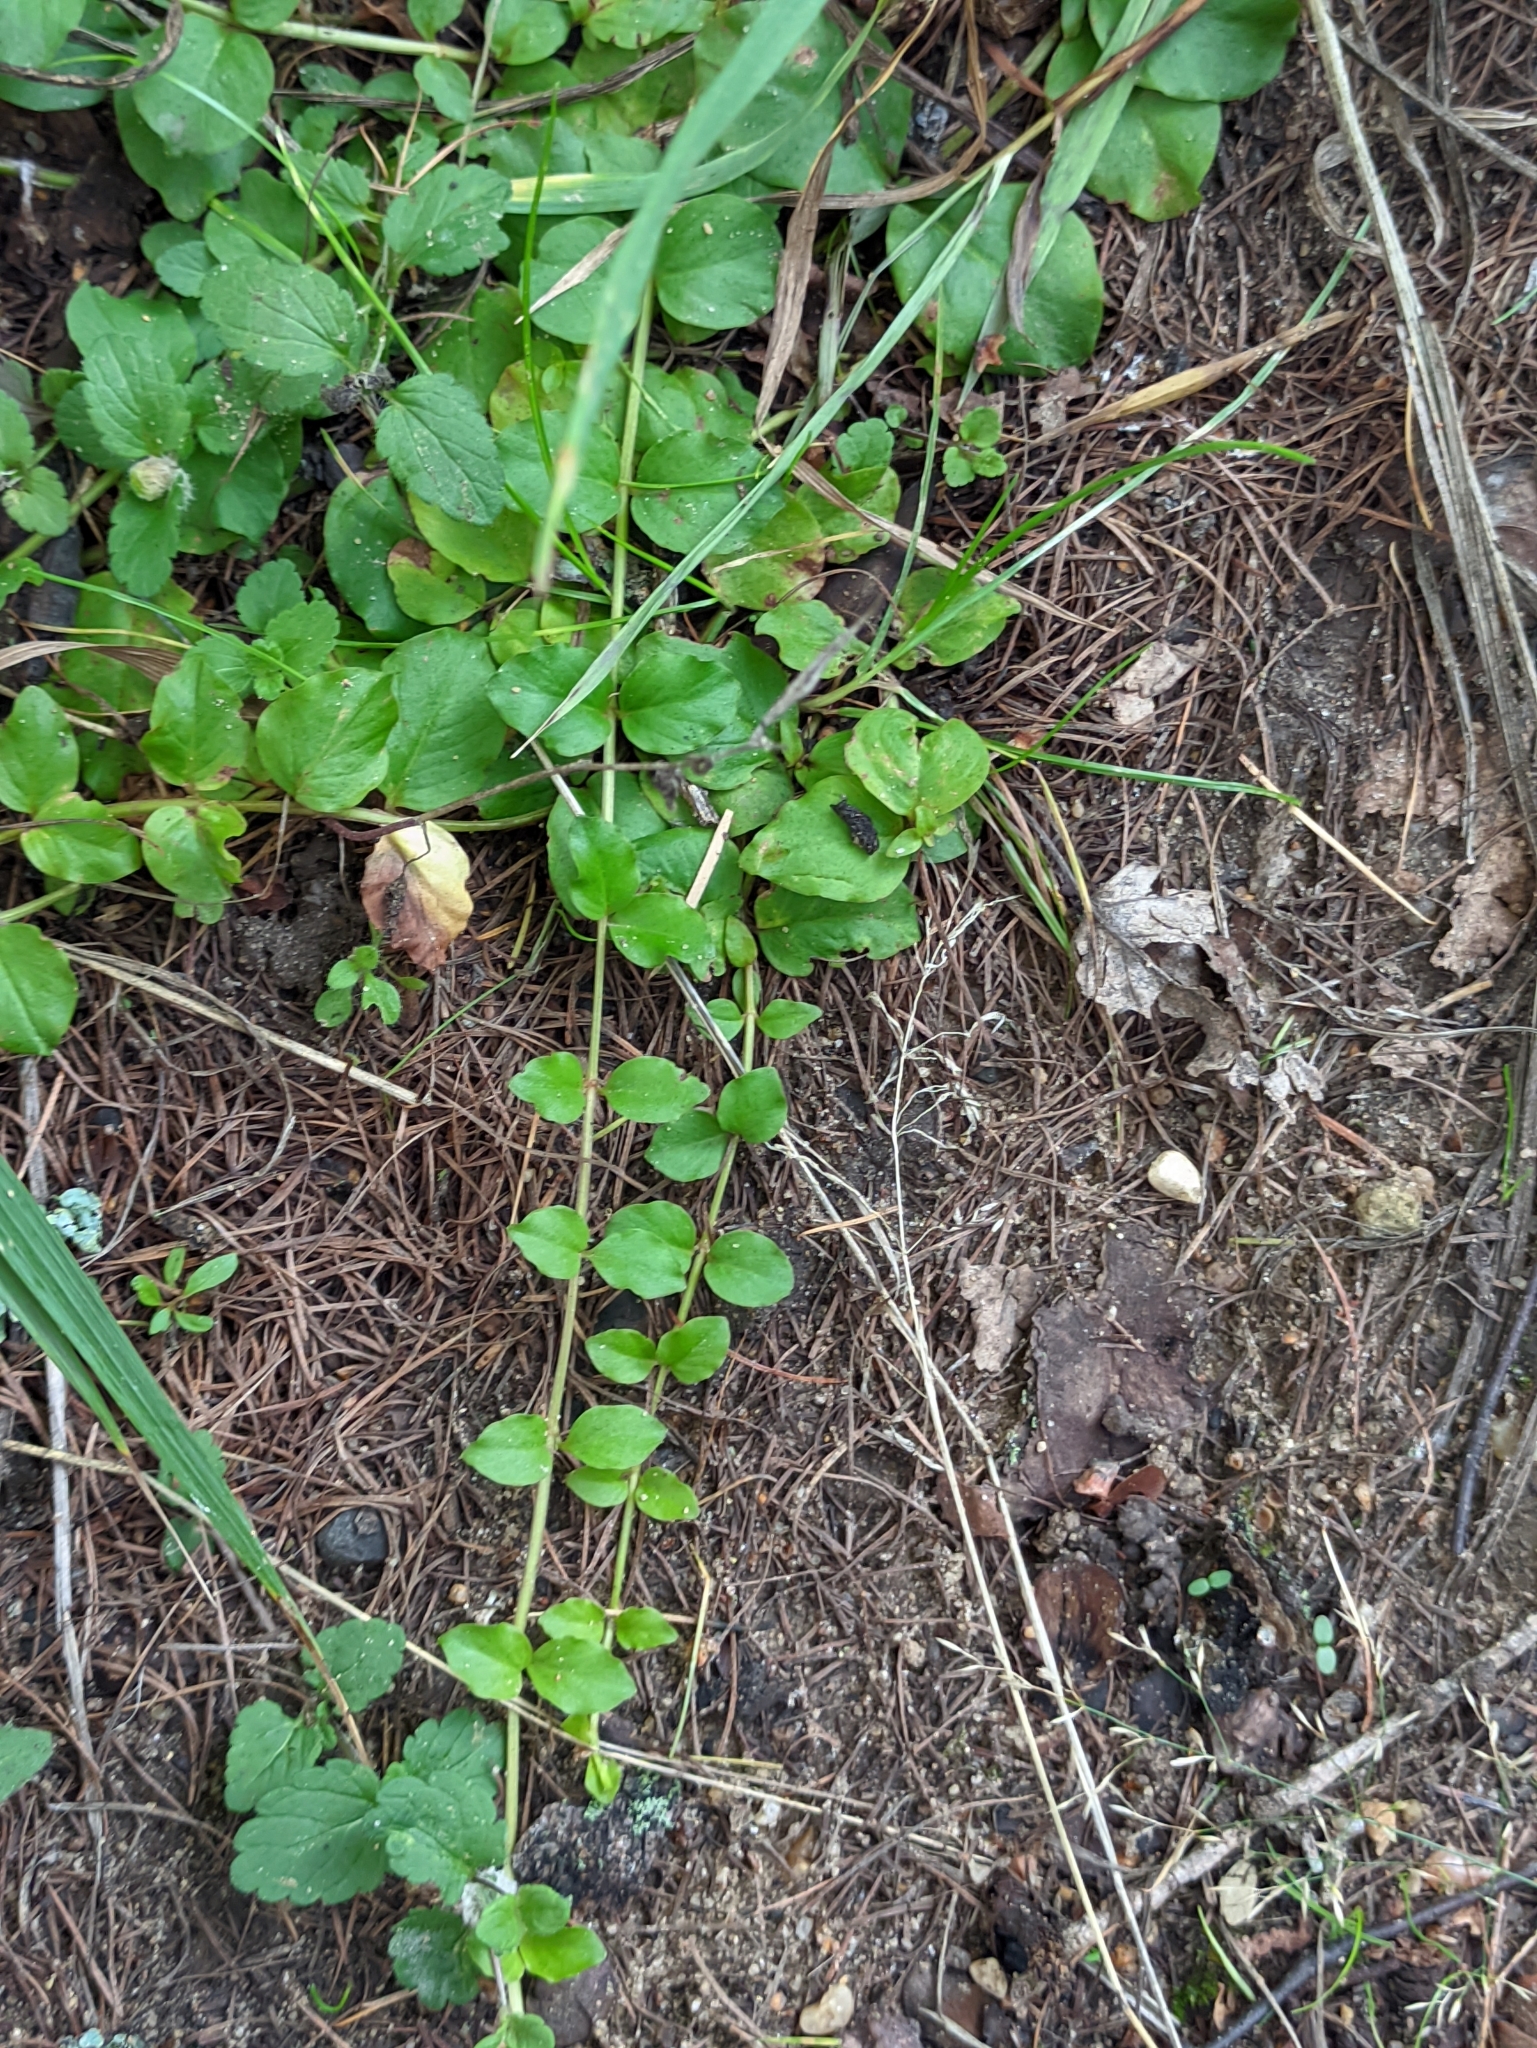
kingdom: Plantae
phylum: Tracheophyta
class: Magnoliopsida
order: Ericales
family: Primulaceae
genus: Lysimachia
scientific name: Lysimachia nummularia
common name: Moneywort
